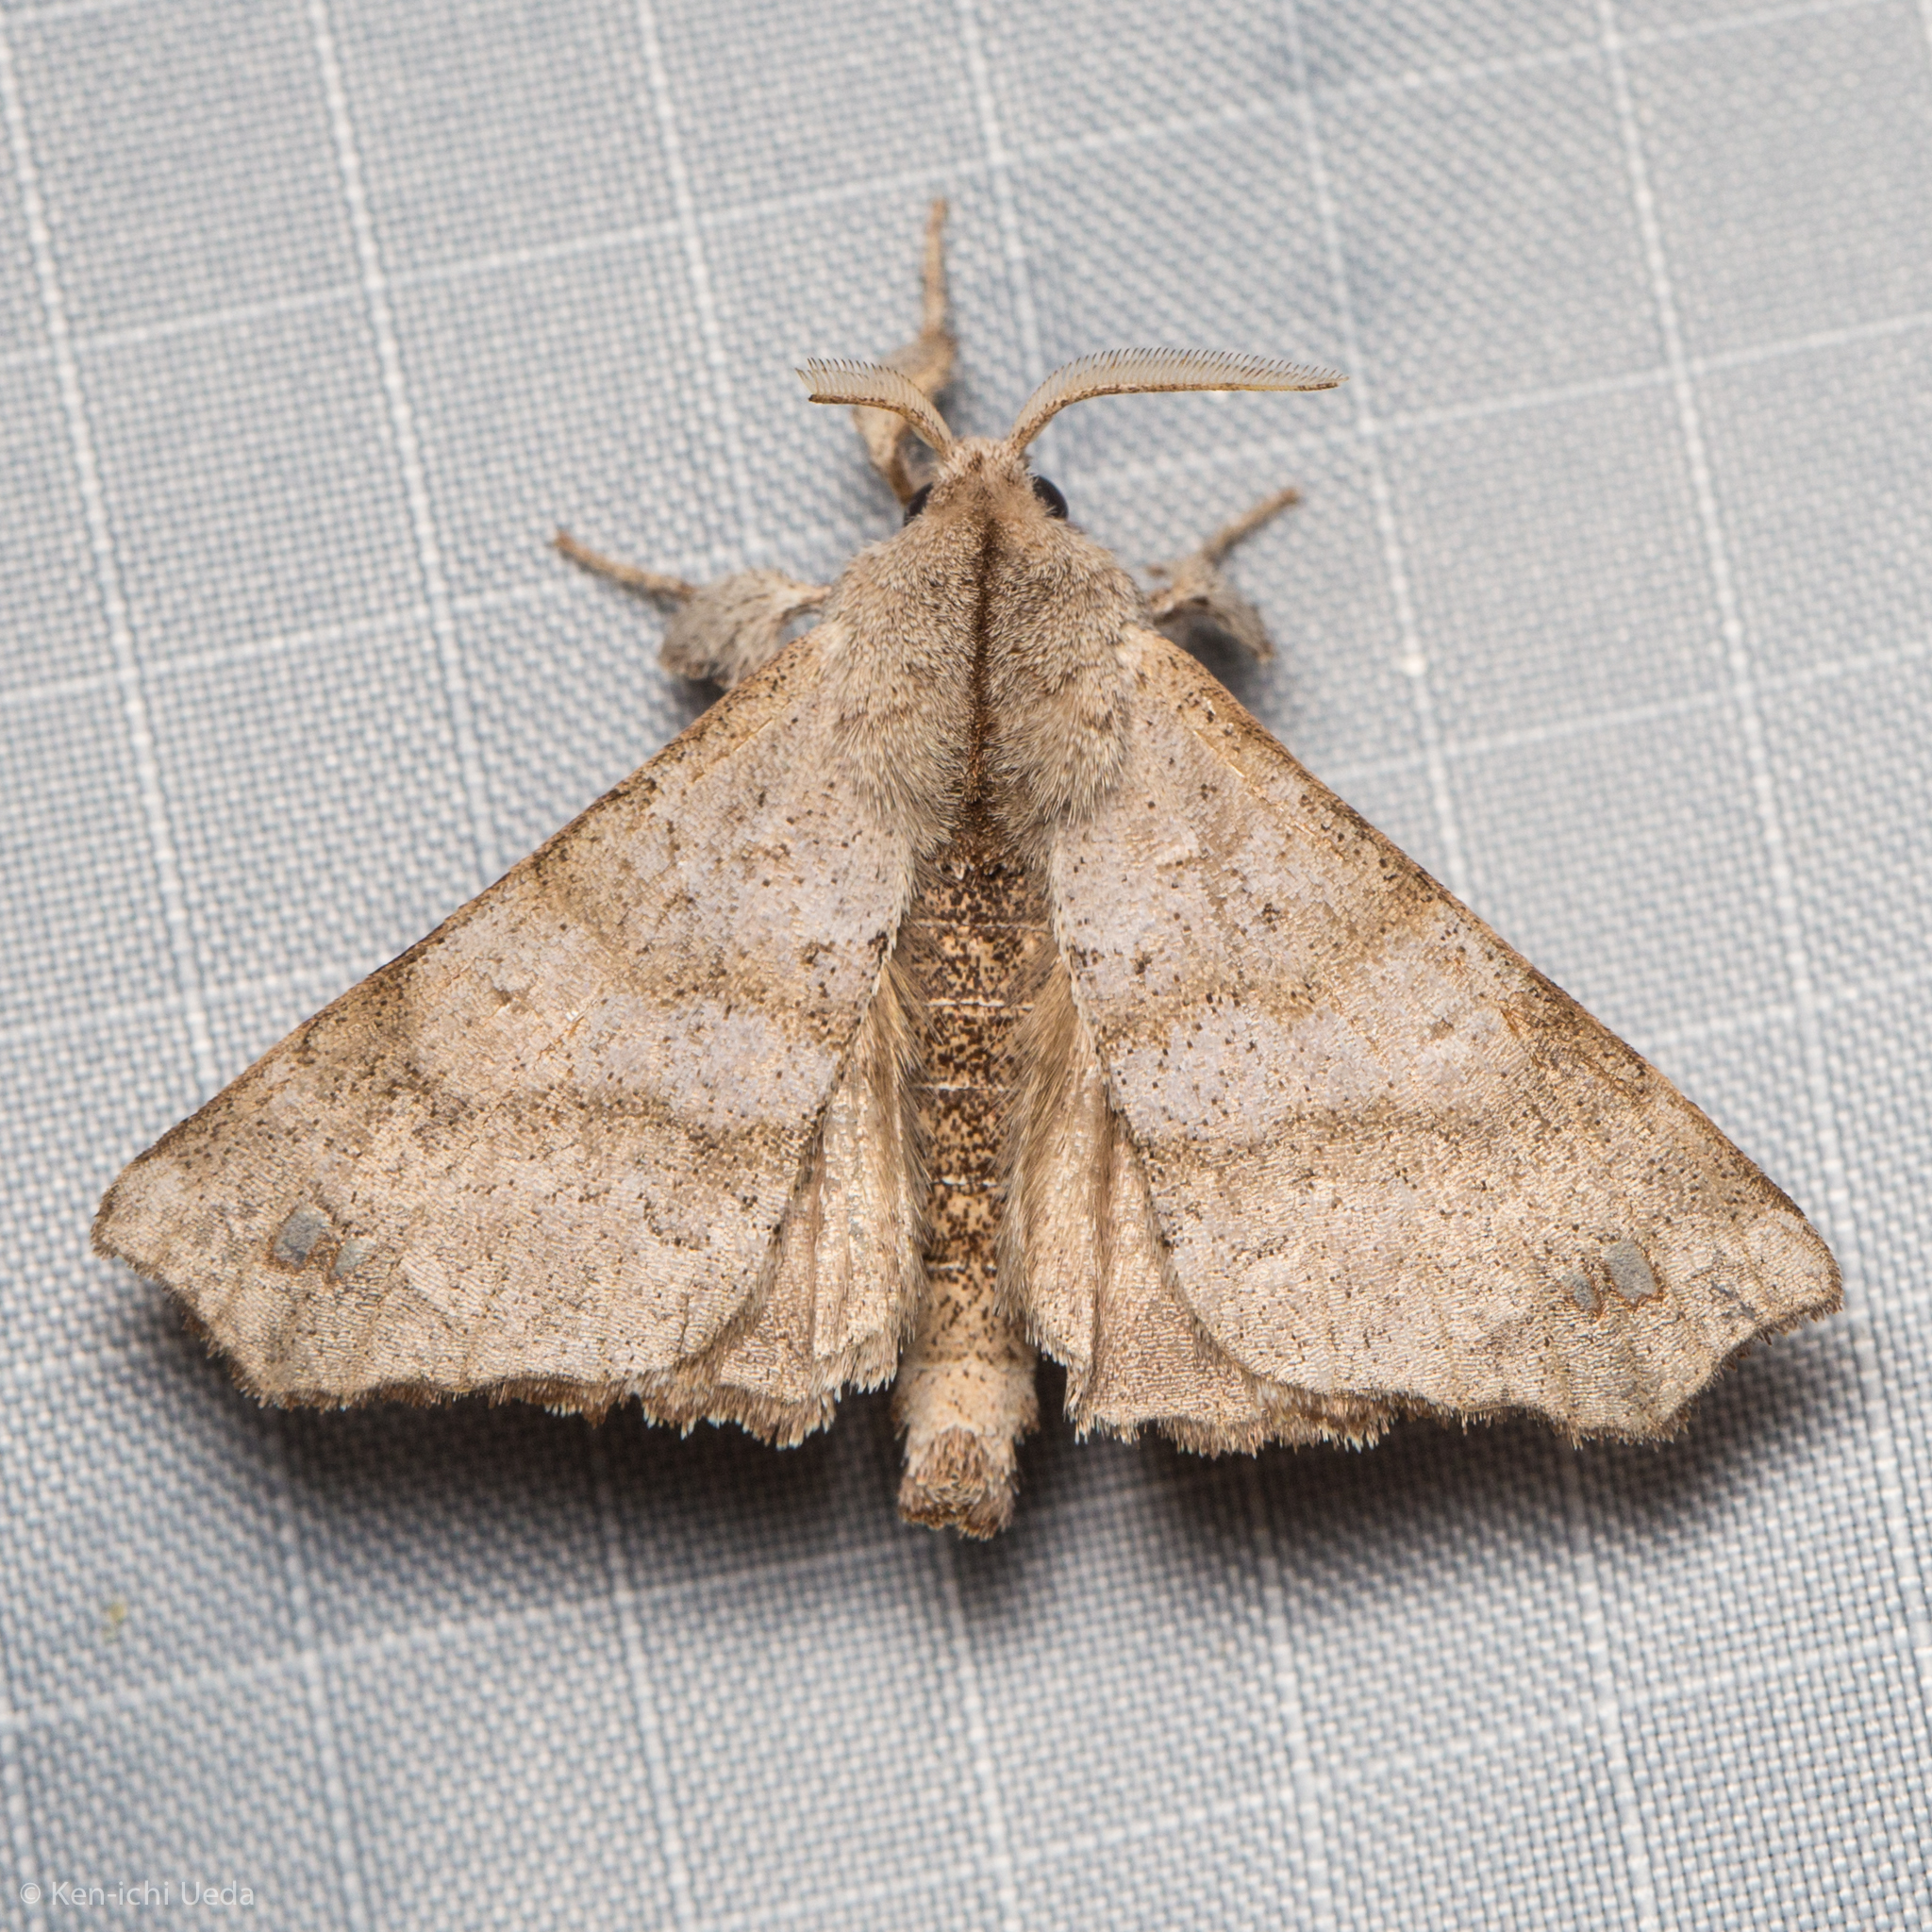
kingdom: Animalia
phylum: Arthropoda
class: Insecta
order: Lepidoptera
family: Apatelodidae
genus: Olceclostera
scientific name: Olceclostera angelica
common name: Angel moth
